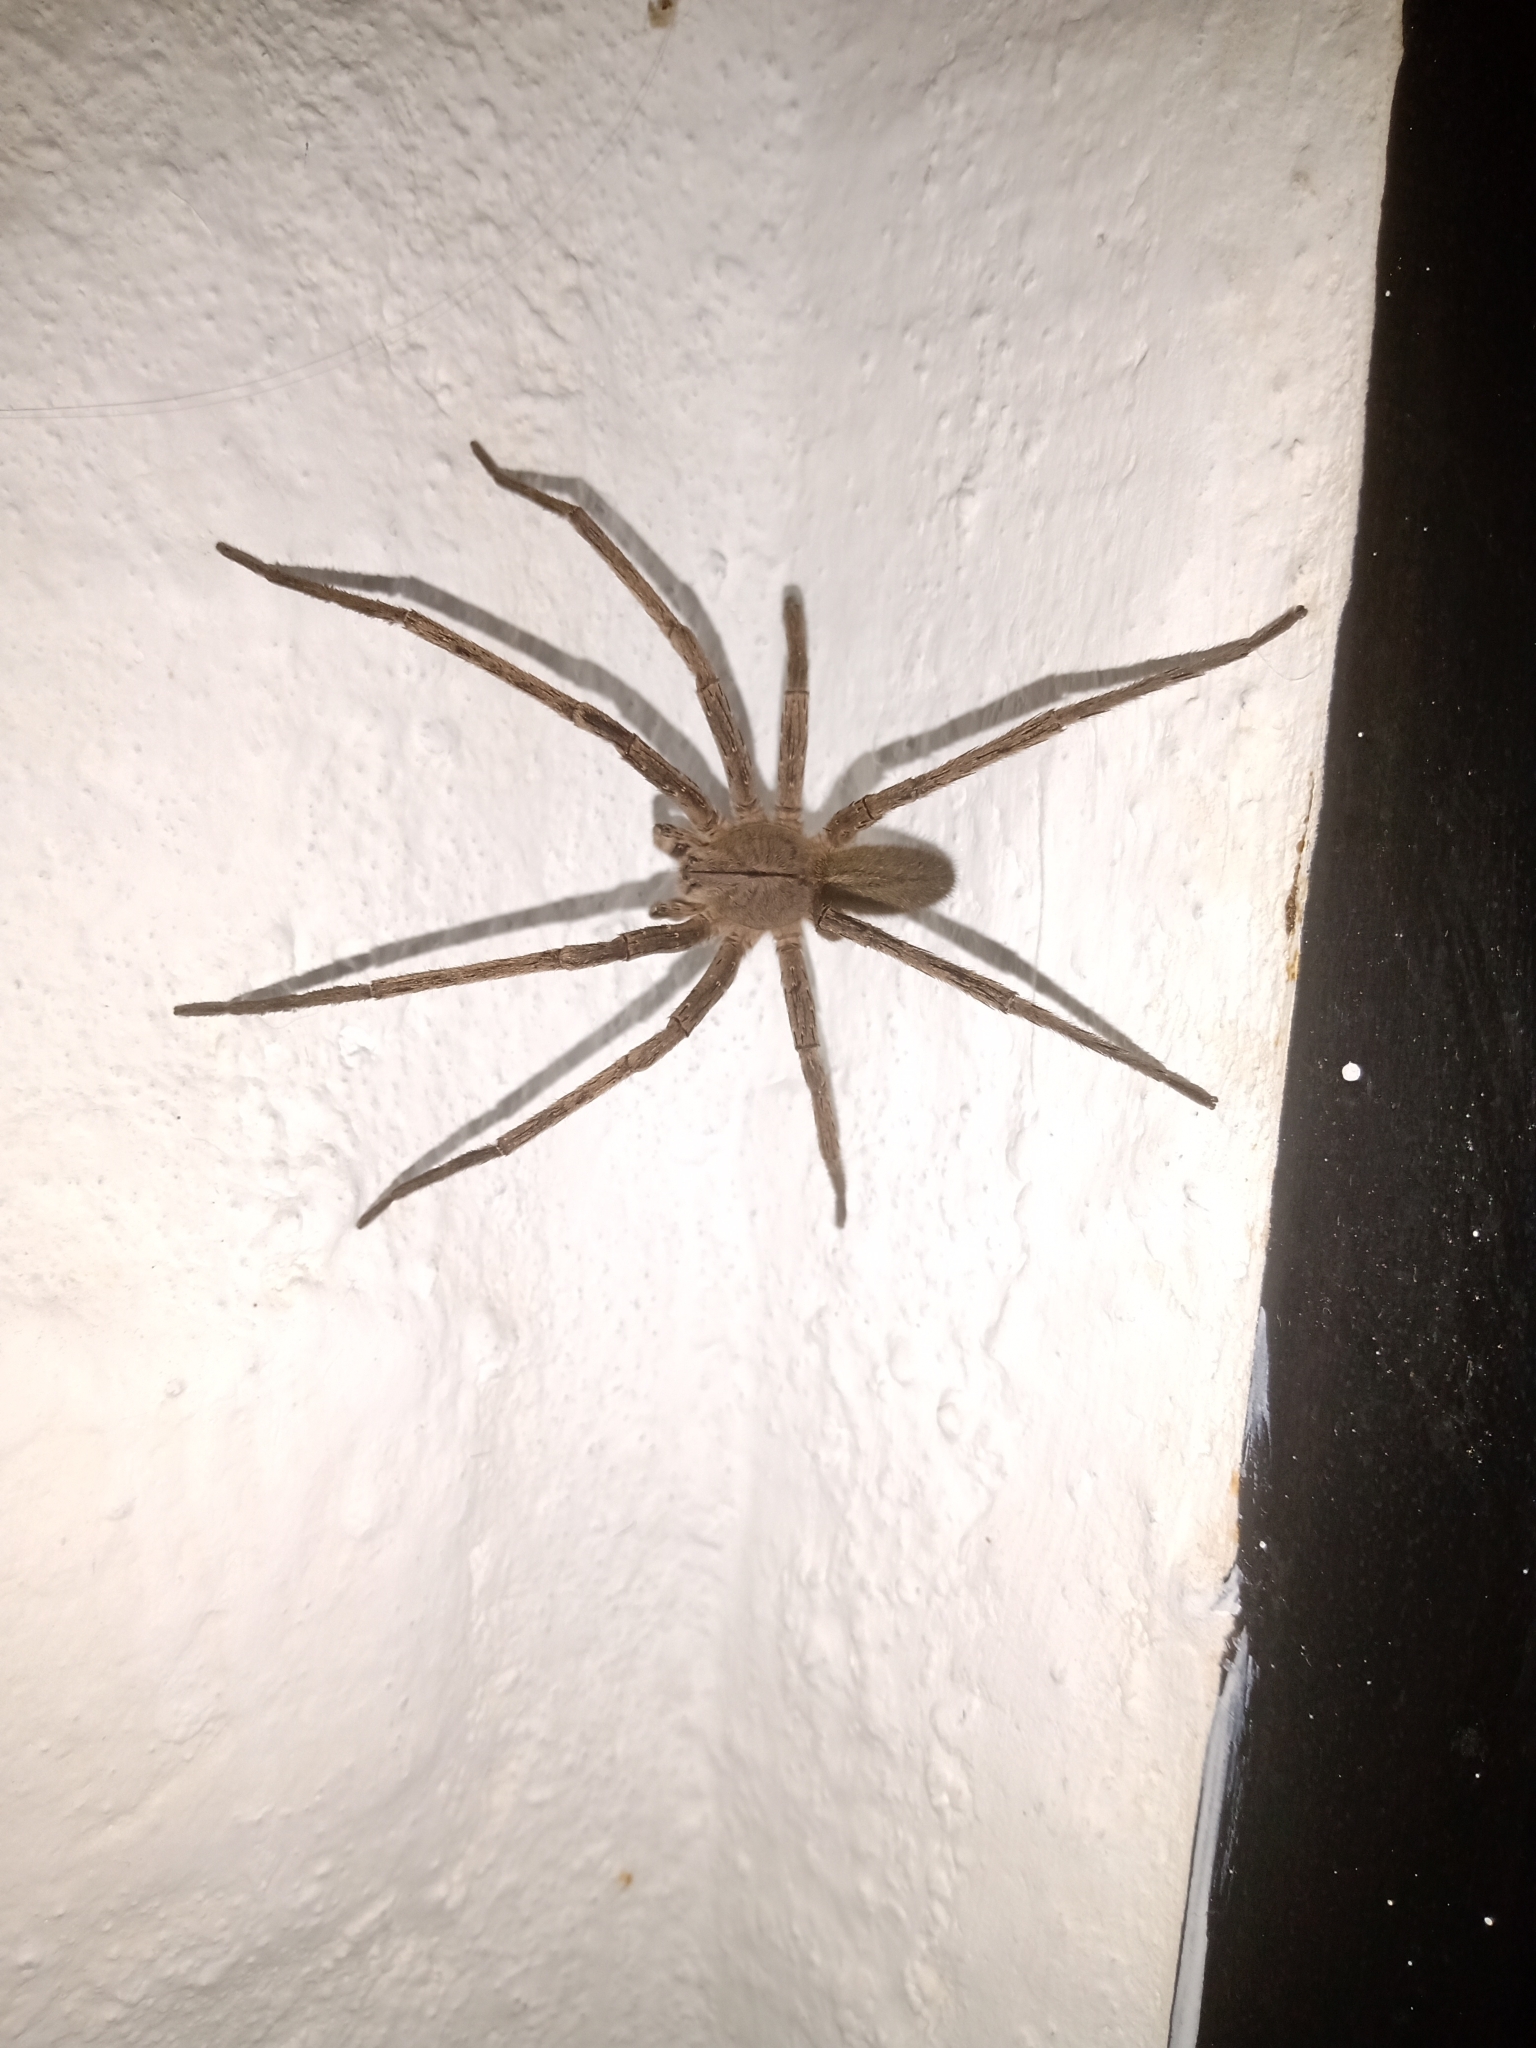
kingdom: Animalia
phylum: Arthropoda
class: Arachnida
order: Araneae
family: Ctenidae
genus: Phoneutria
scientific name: Phoneutria depilata
